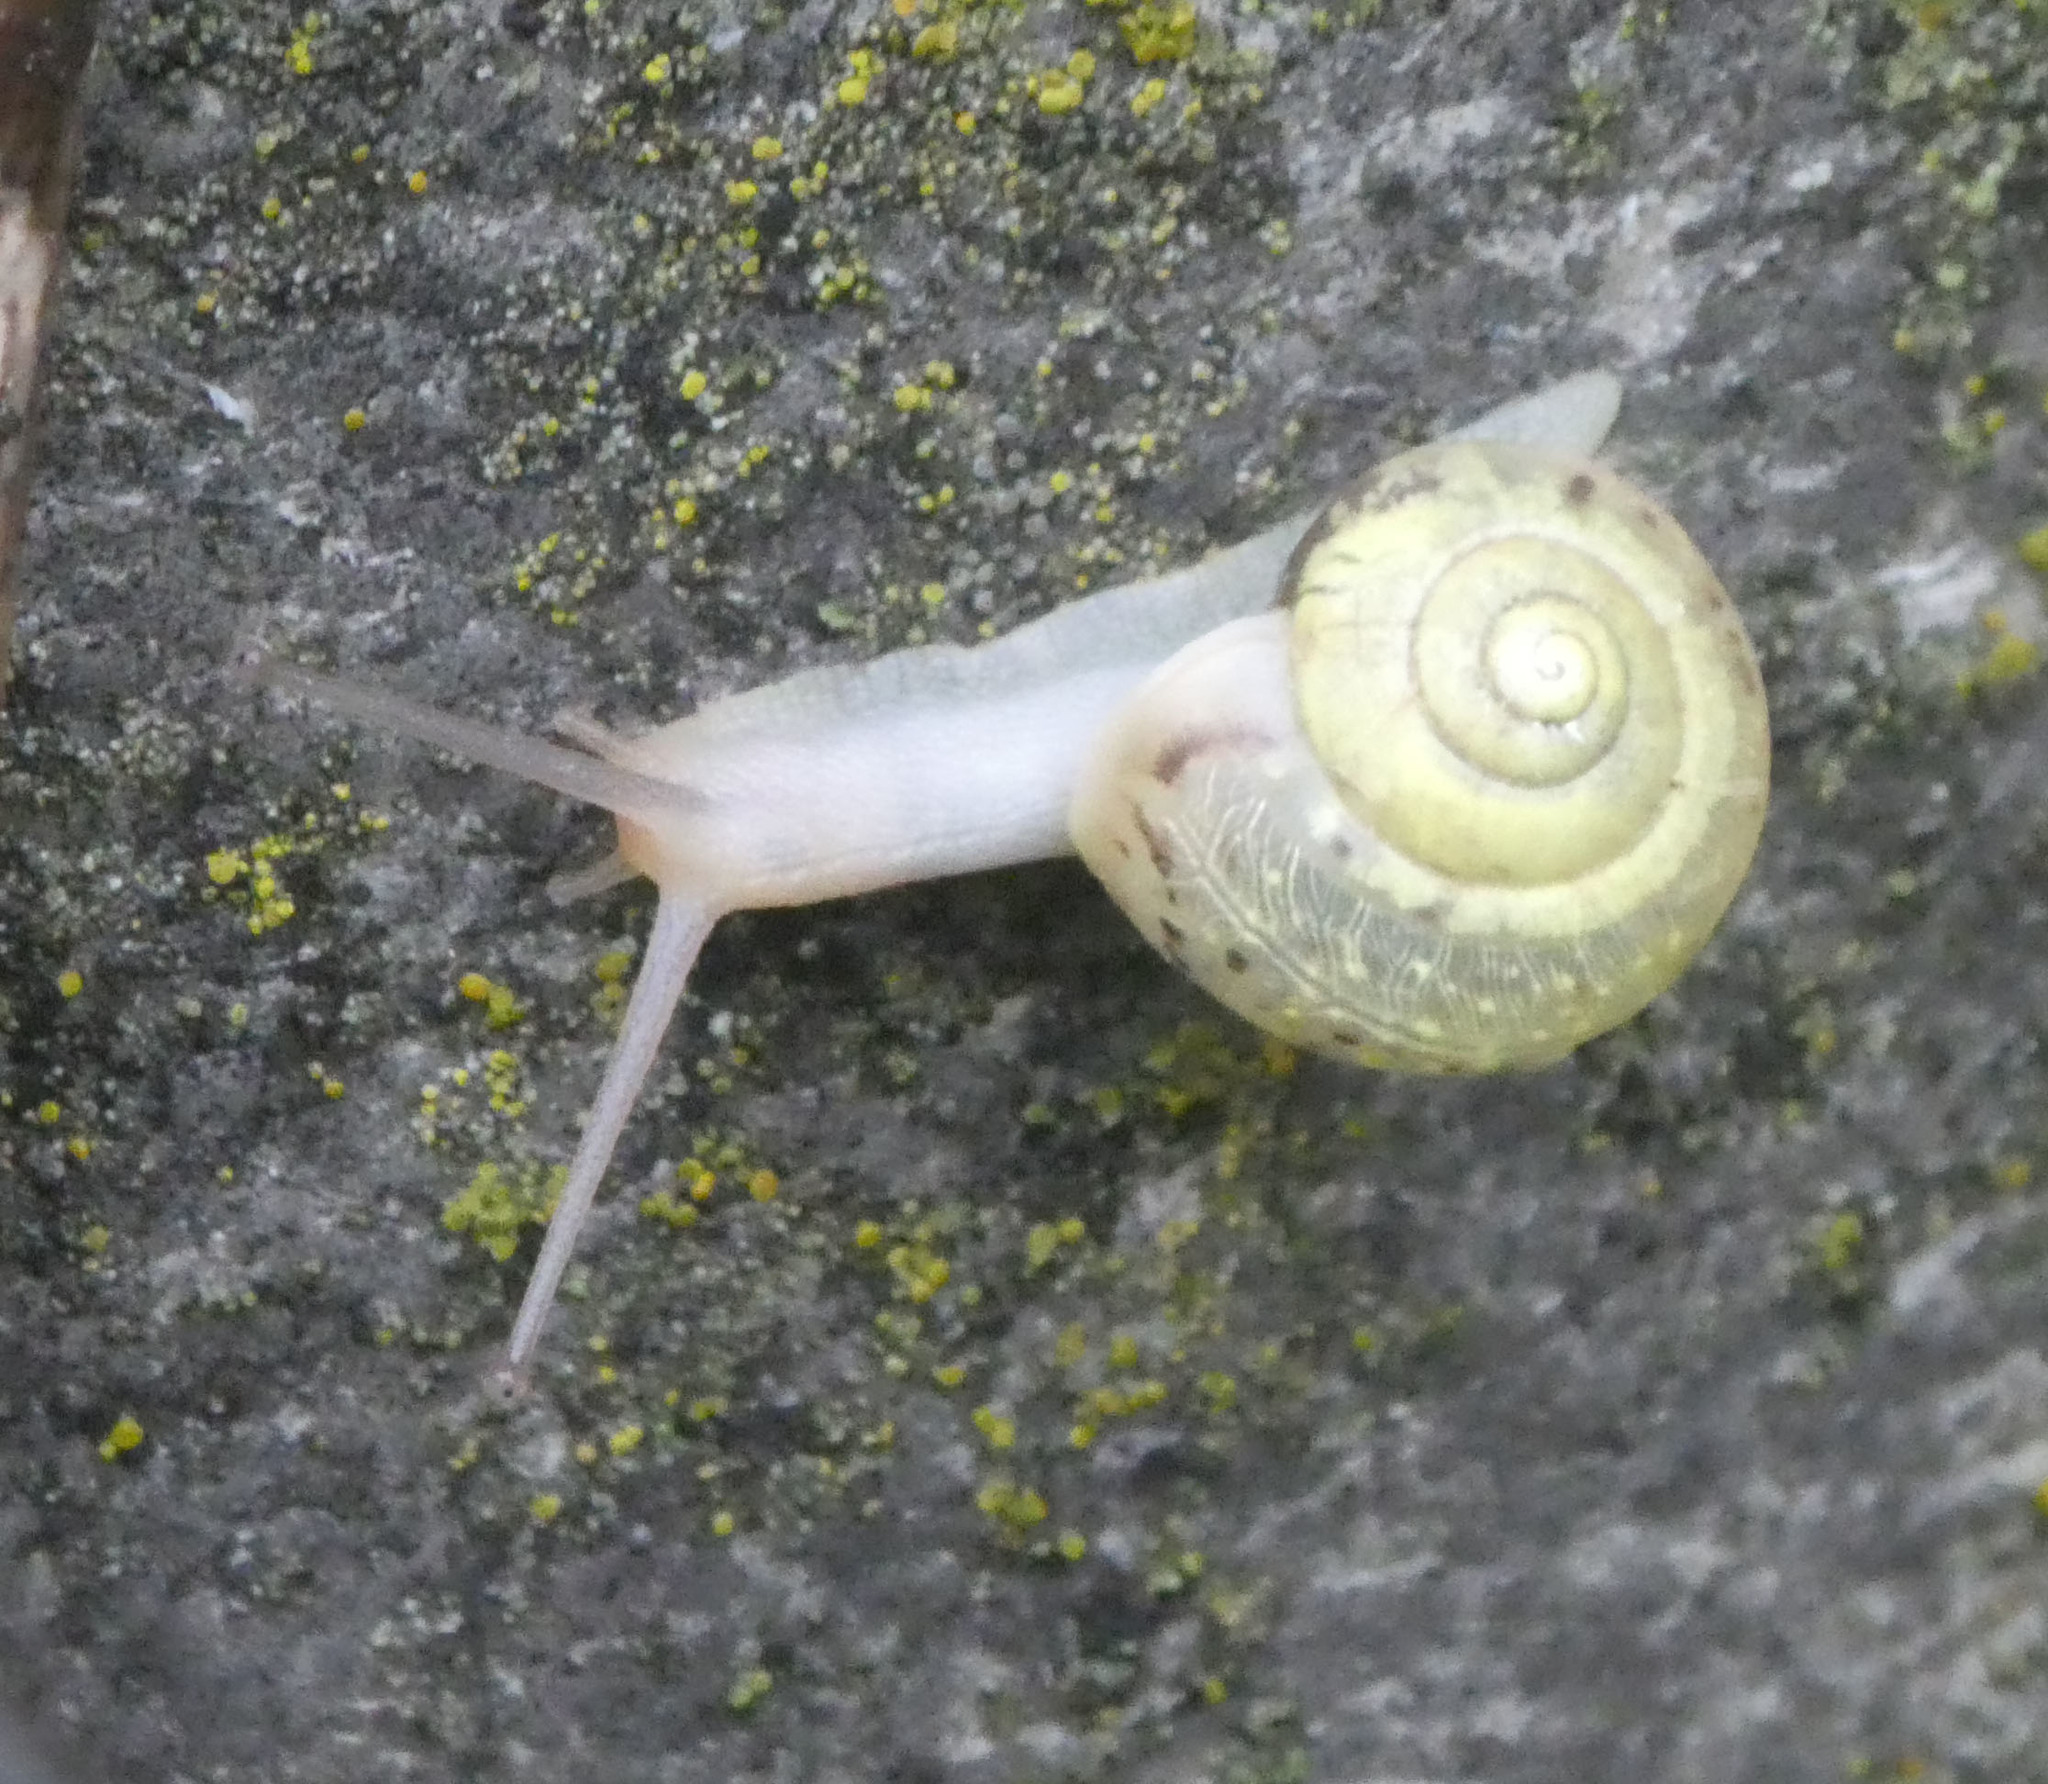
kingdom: Animalia
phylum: Mollusca
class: Gastropoda
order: Stylommatophora
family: Camaenidae
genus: Fruticicola
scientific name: Fruticicola fruticum
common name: Bush snail
